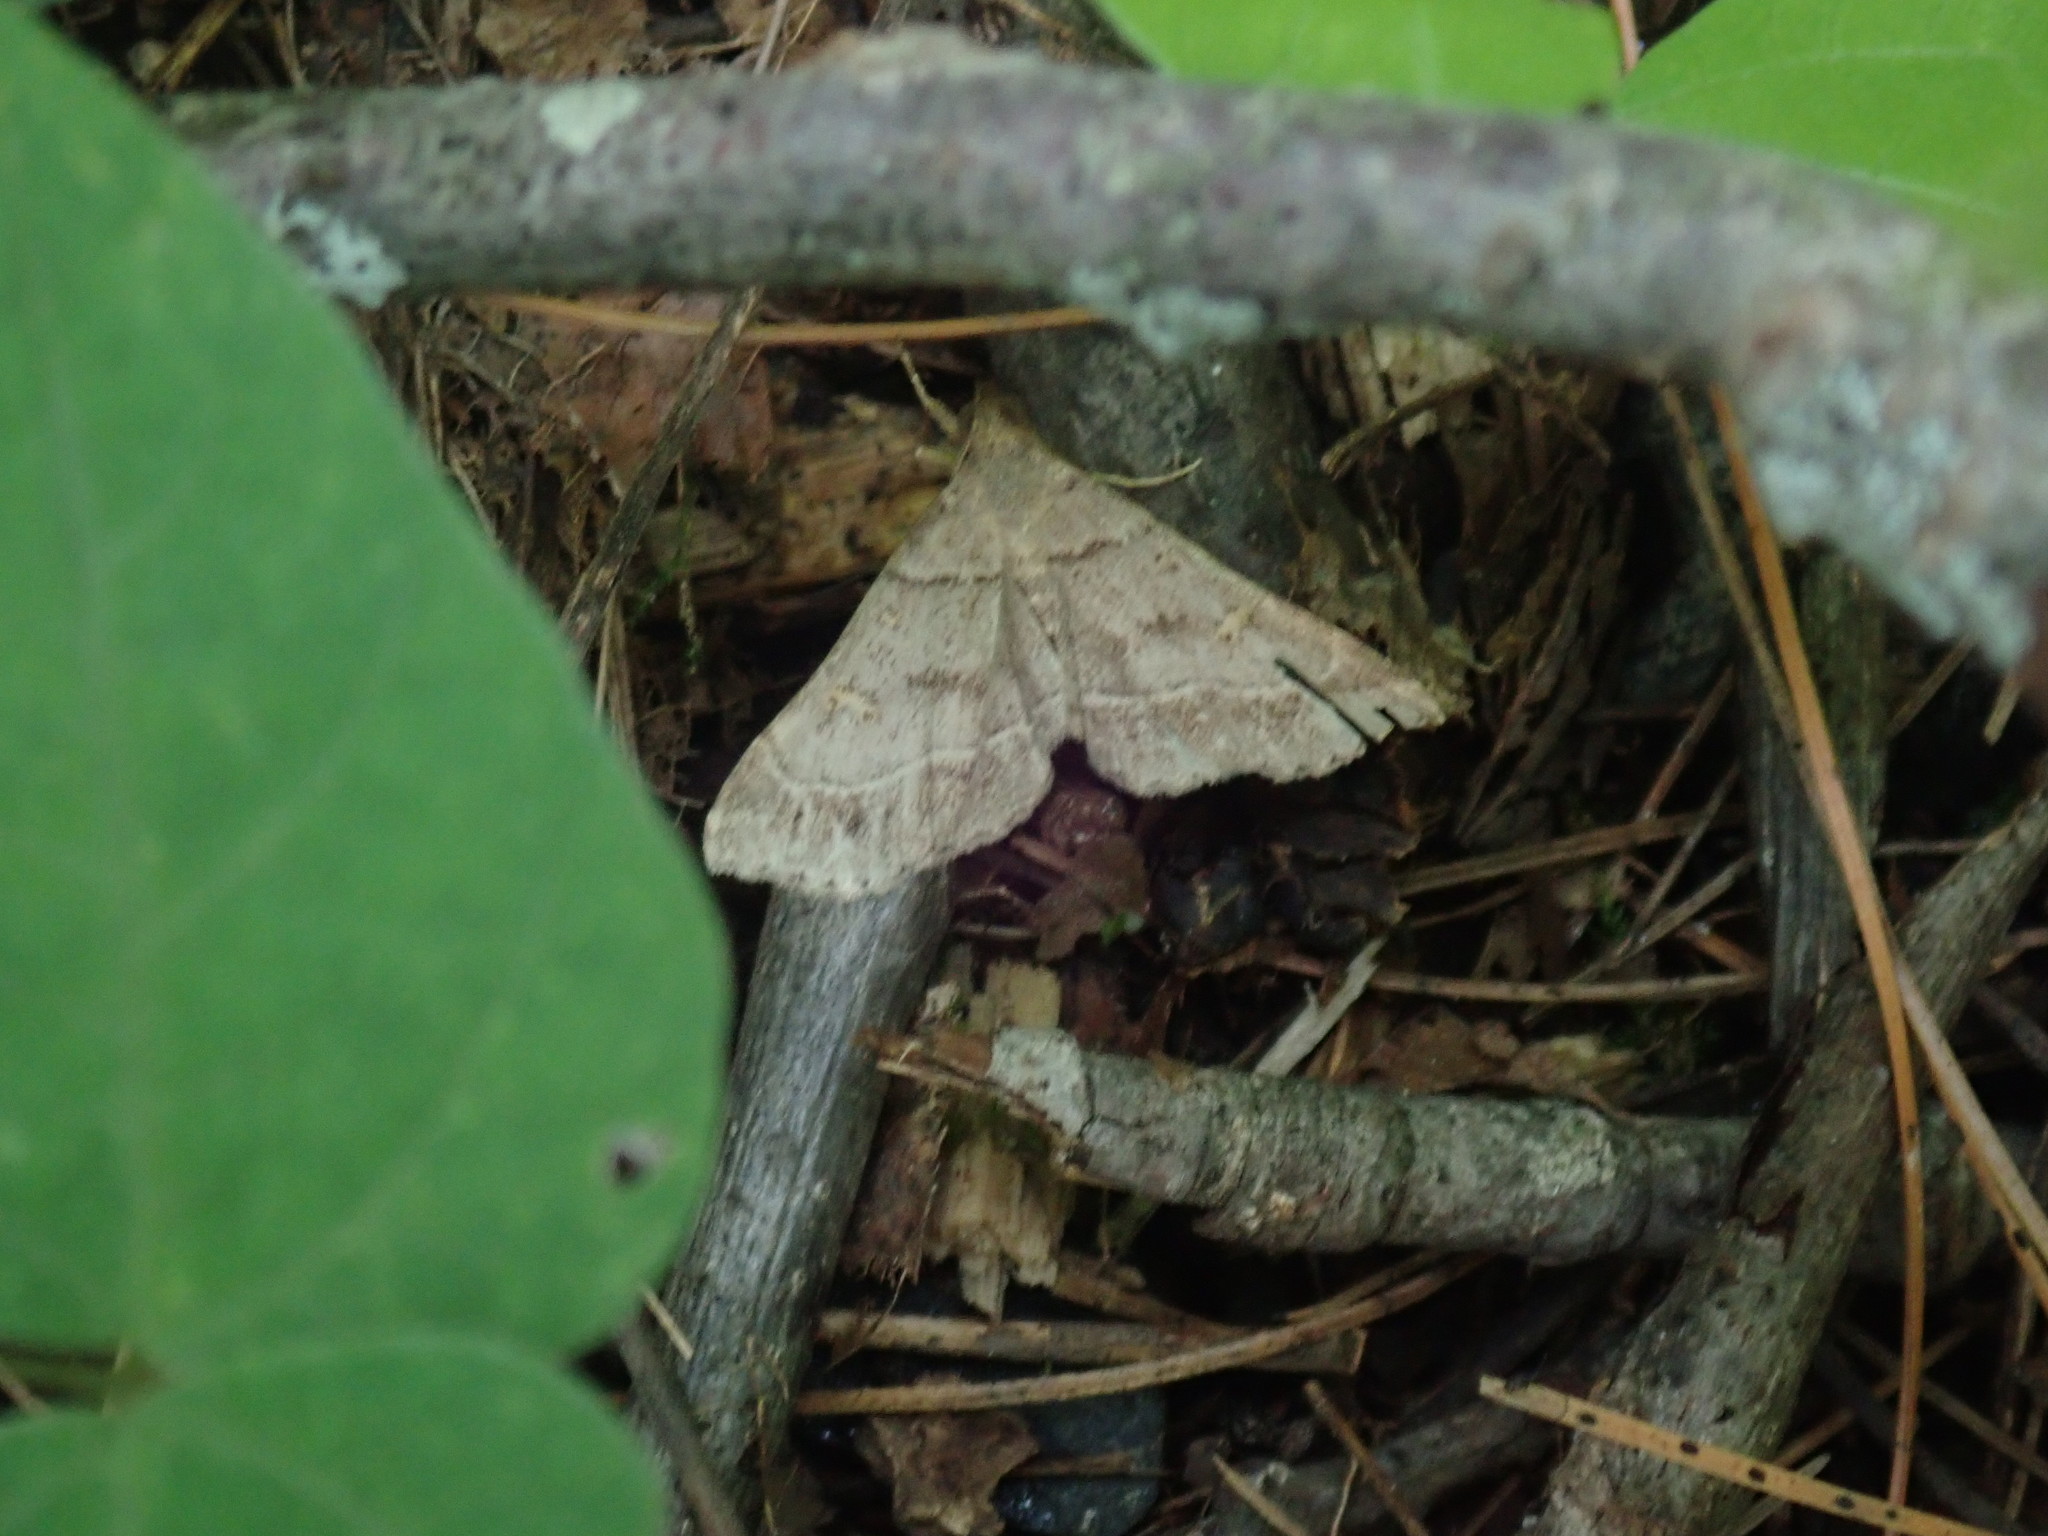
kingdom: Animalia
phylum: Arthropoda
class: Insecta
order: Lepidoptera
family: Erebidae
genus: Renia
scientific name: Renia flavipunctalis
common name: Yellow-spotted renia moth
